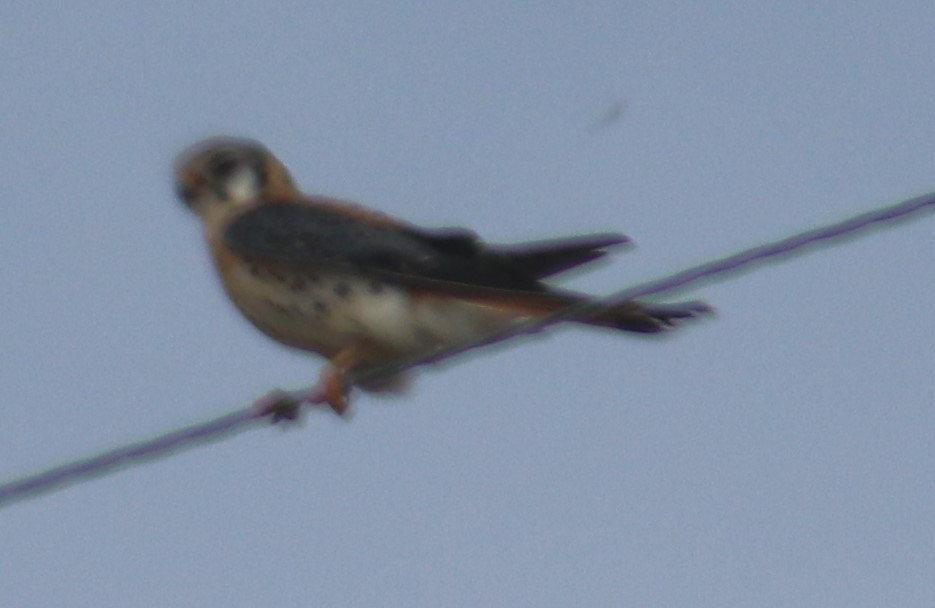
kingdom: Animalia
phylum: Chordata
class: Aves
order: Falconiformes
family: Falconidae
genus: Falco
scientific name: Falco sparverius
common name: American kestrel
